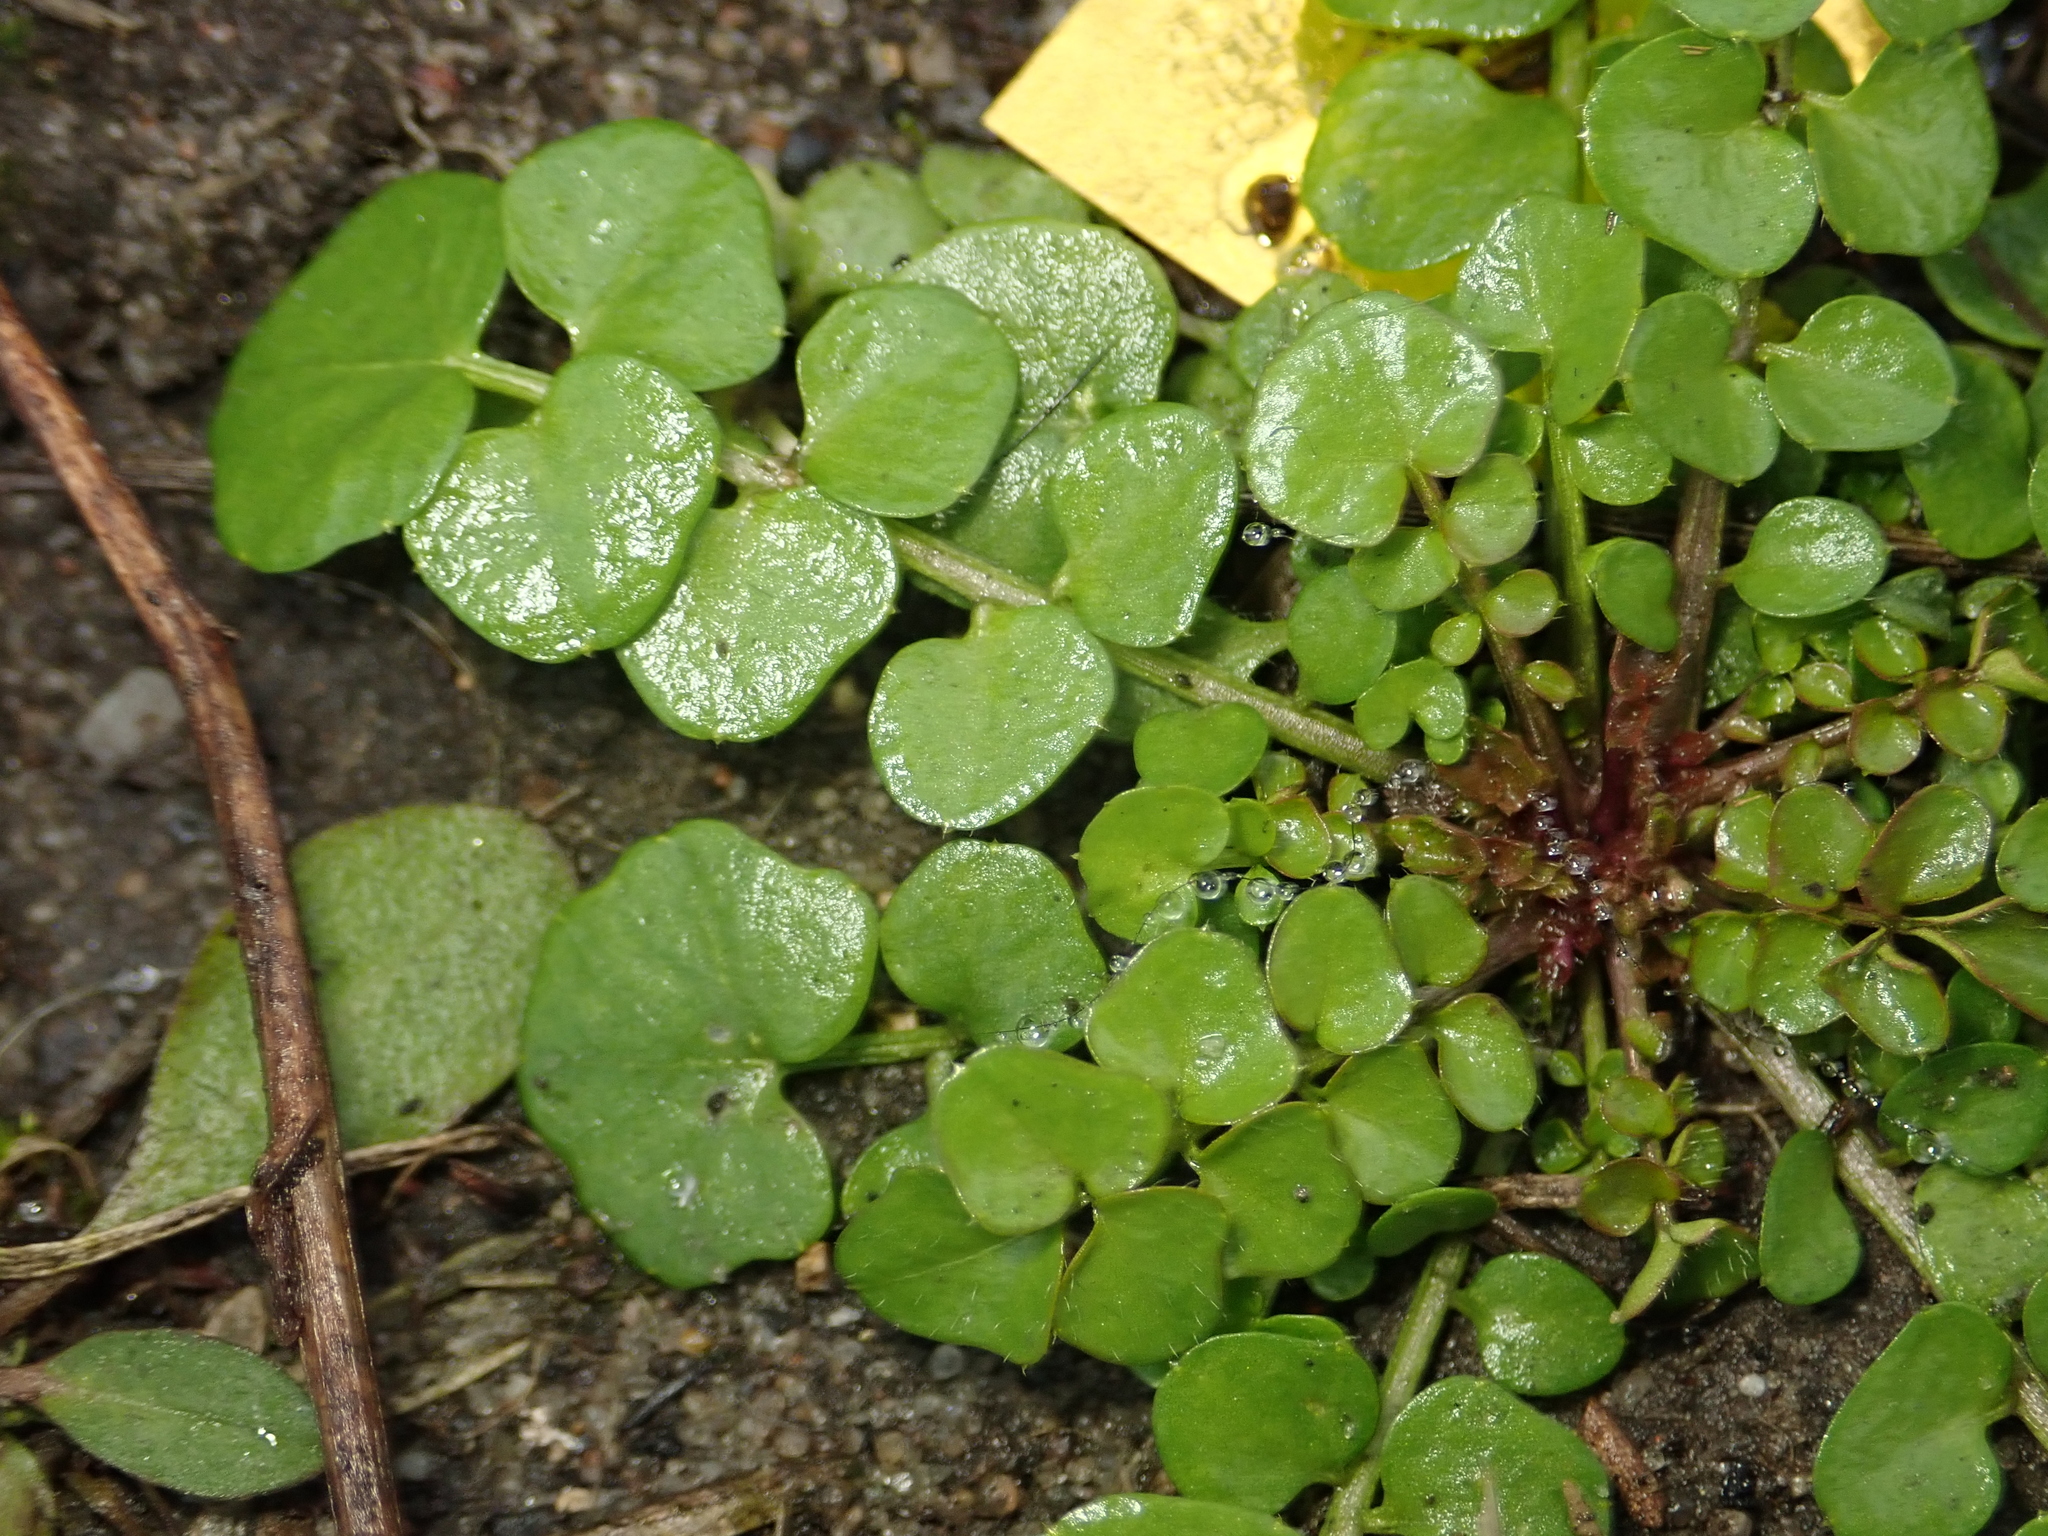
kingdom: Plantae
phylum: Tracheophyta
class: Magnoliopsida
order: Brassicales
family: Brassicaceae
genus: Cardamine
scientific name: Cardamine hirsuta
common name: Hairy bittercress
